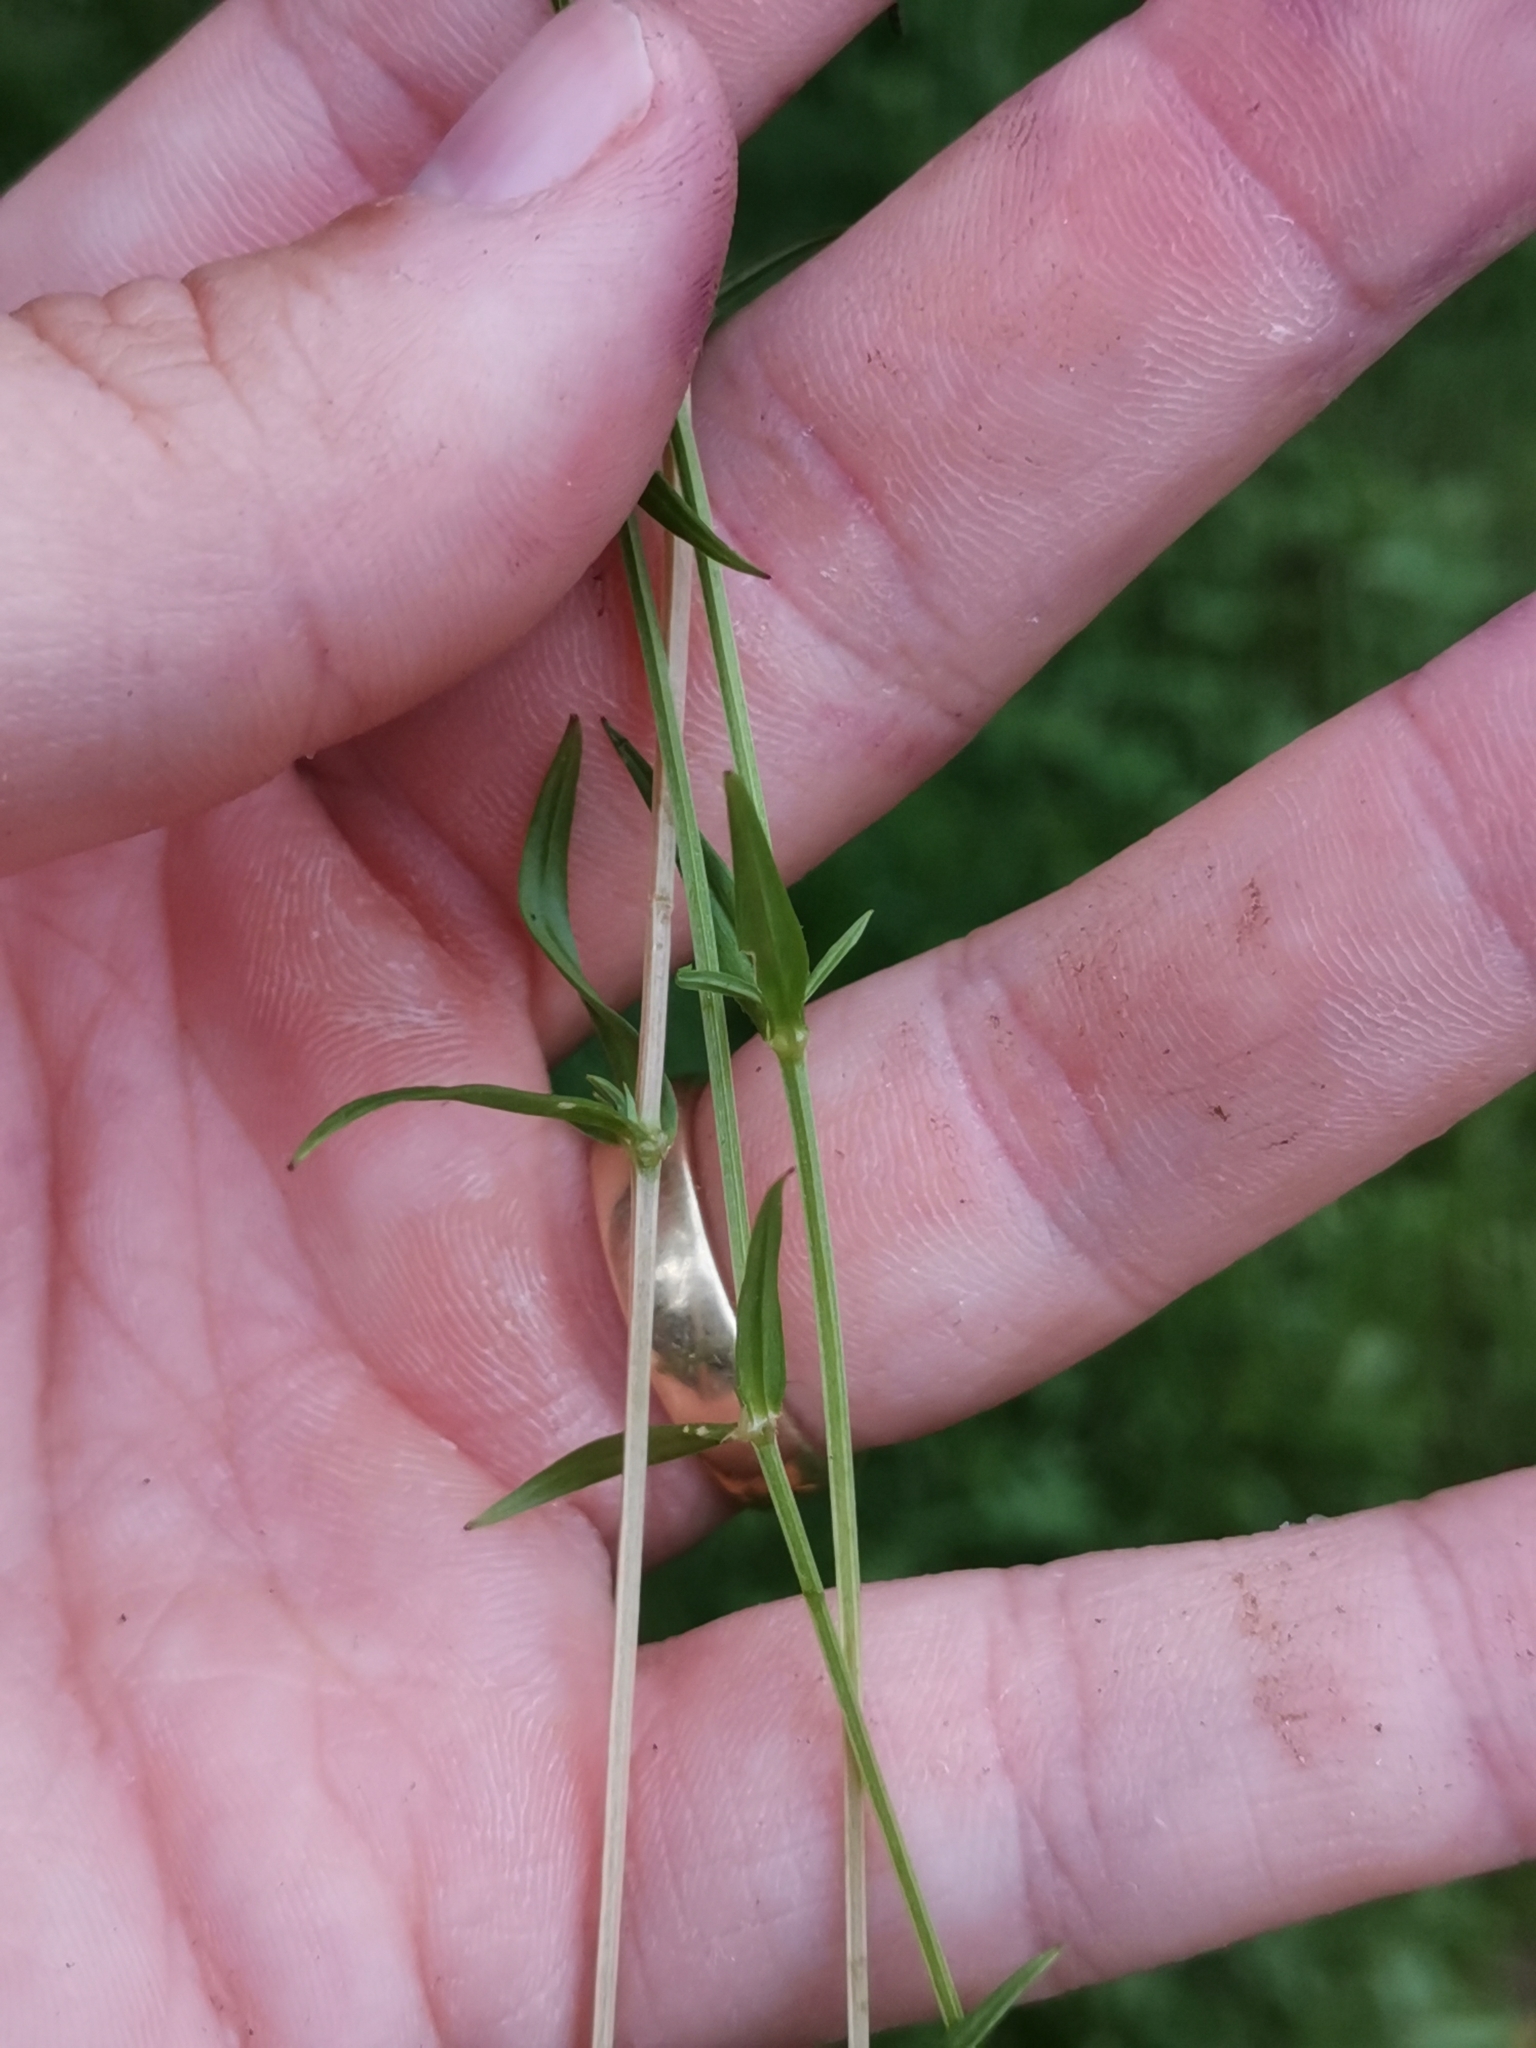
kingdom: Plantae
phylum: Tracheophyta
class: Magnoliopsida
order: Caryophyllales
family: Caryophyllaceae
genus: Stellaria
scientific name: Stellaria graminea
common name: Grass-like starwort
